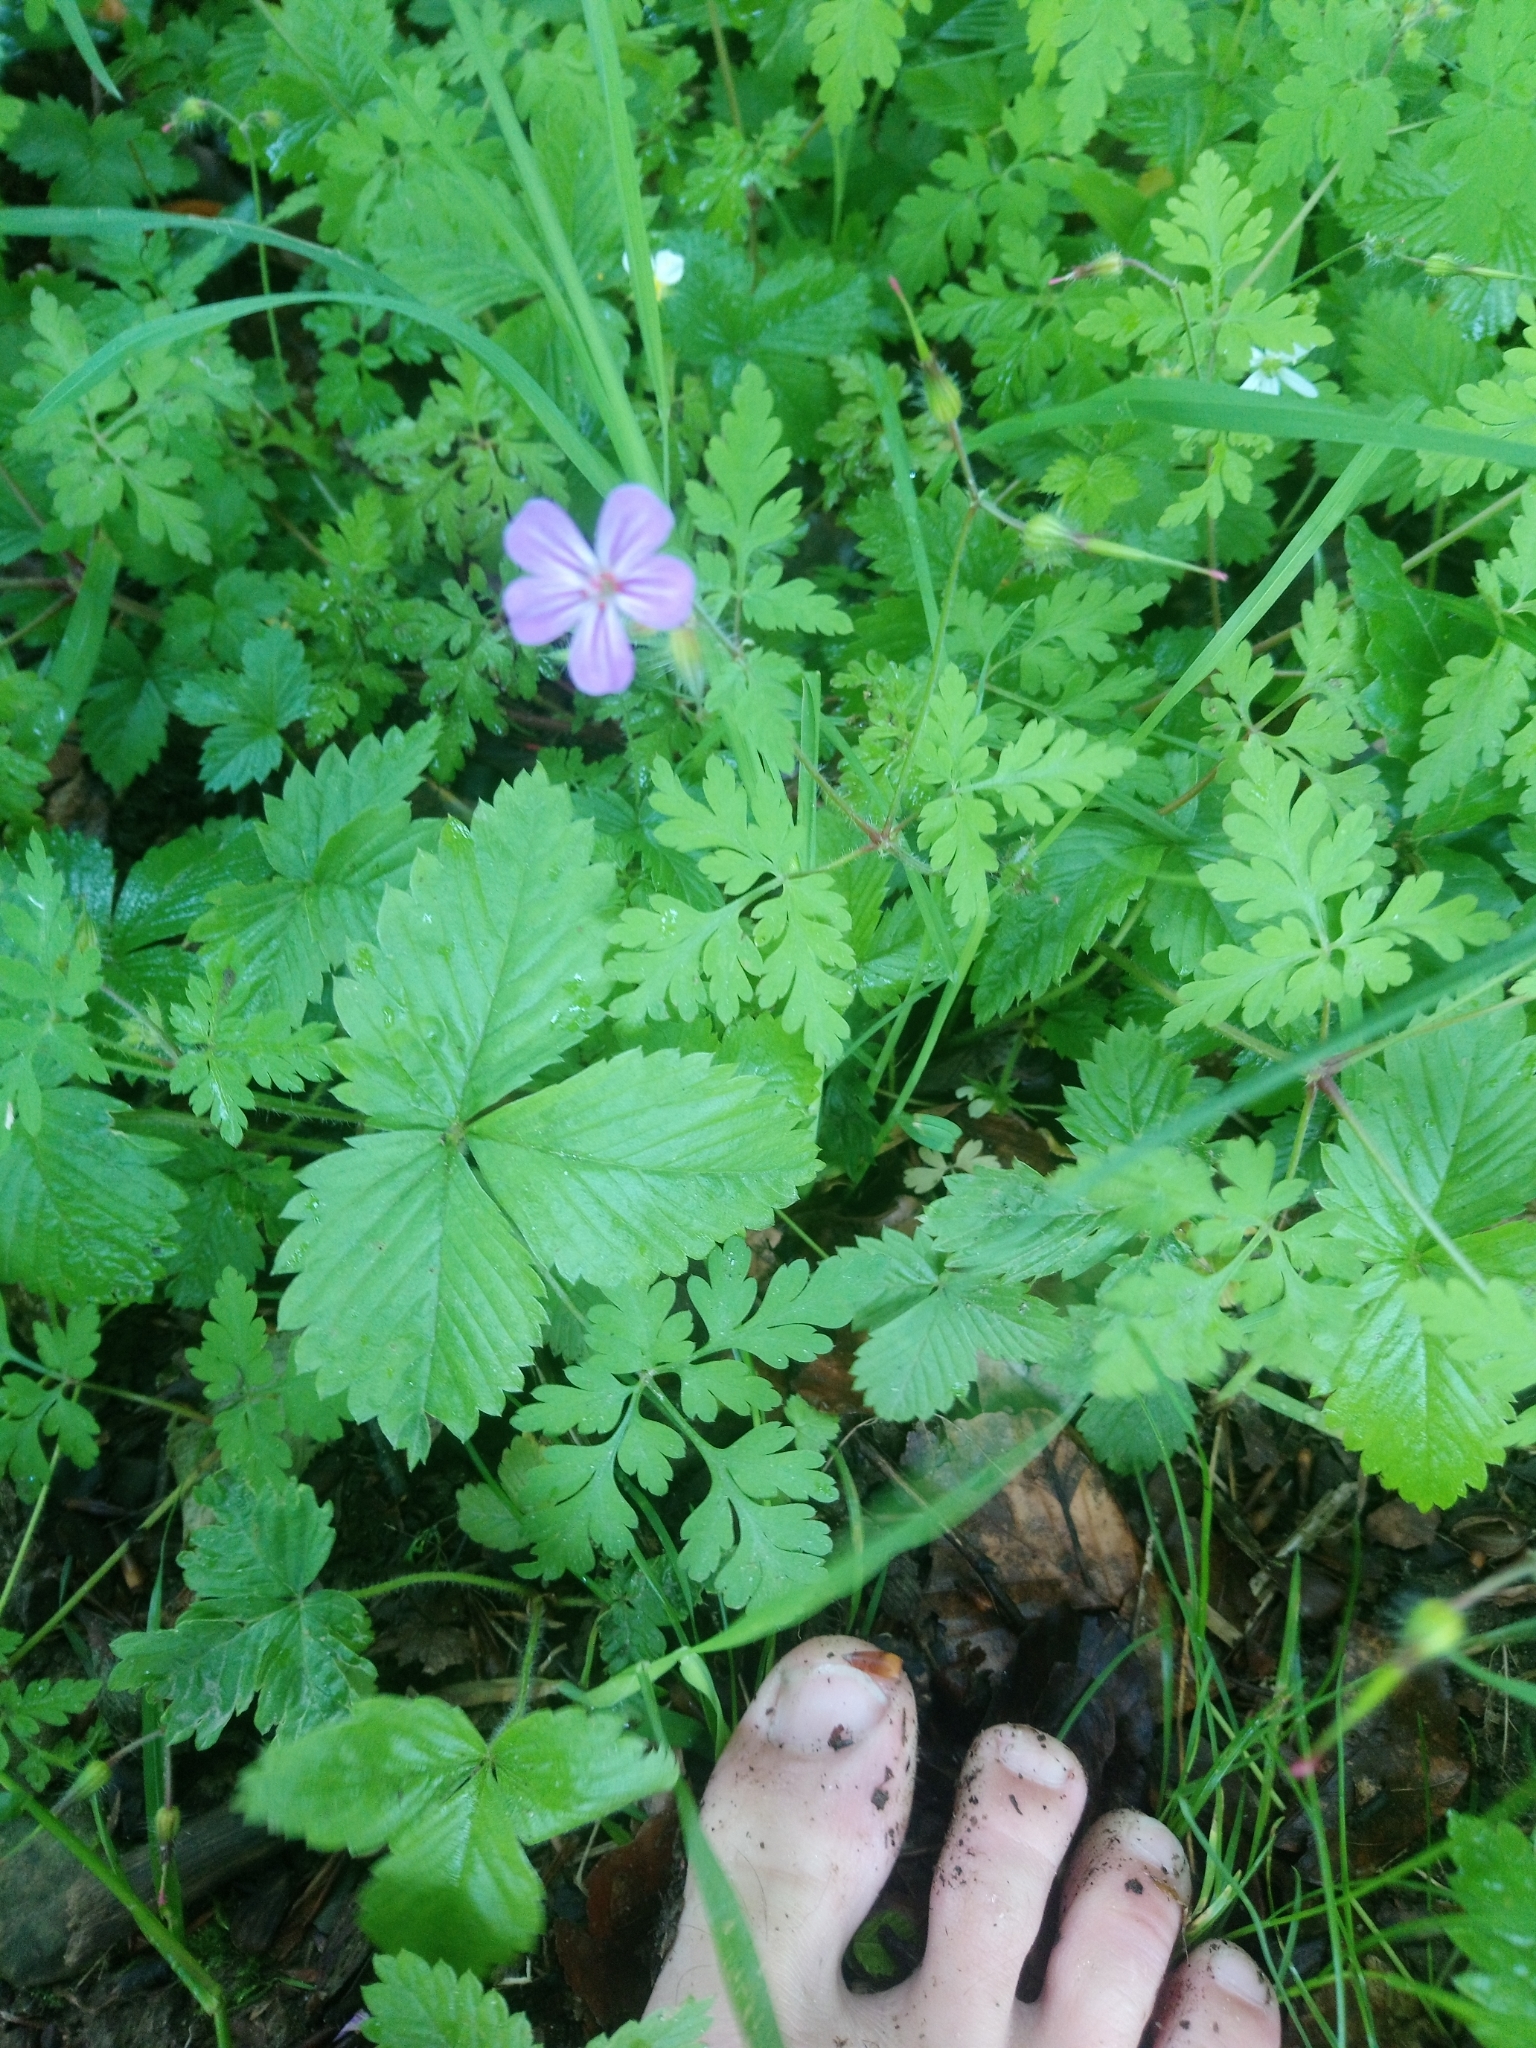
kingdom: Plantae
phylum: Tracheophyta
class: Magnoliopsida
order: Geraniales
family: Geraniaceae
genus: Geranium
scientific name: Geranium robertianum
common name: Herb-robert
